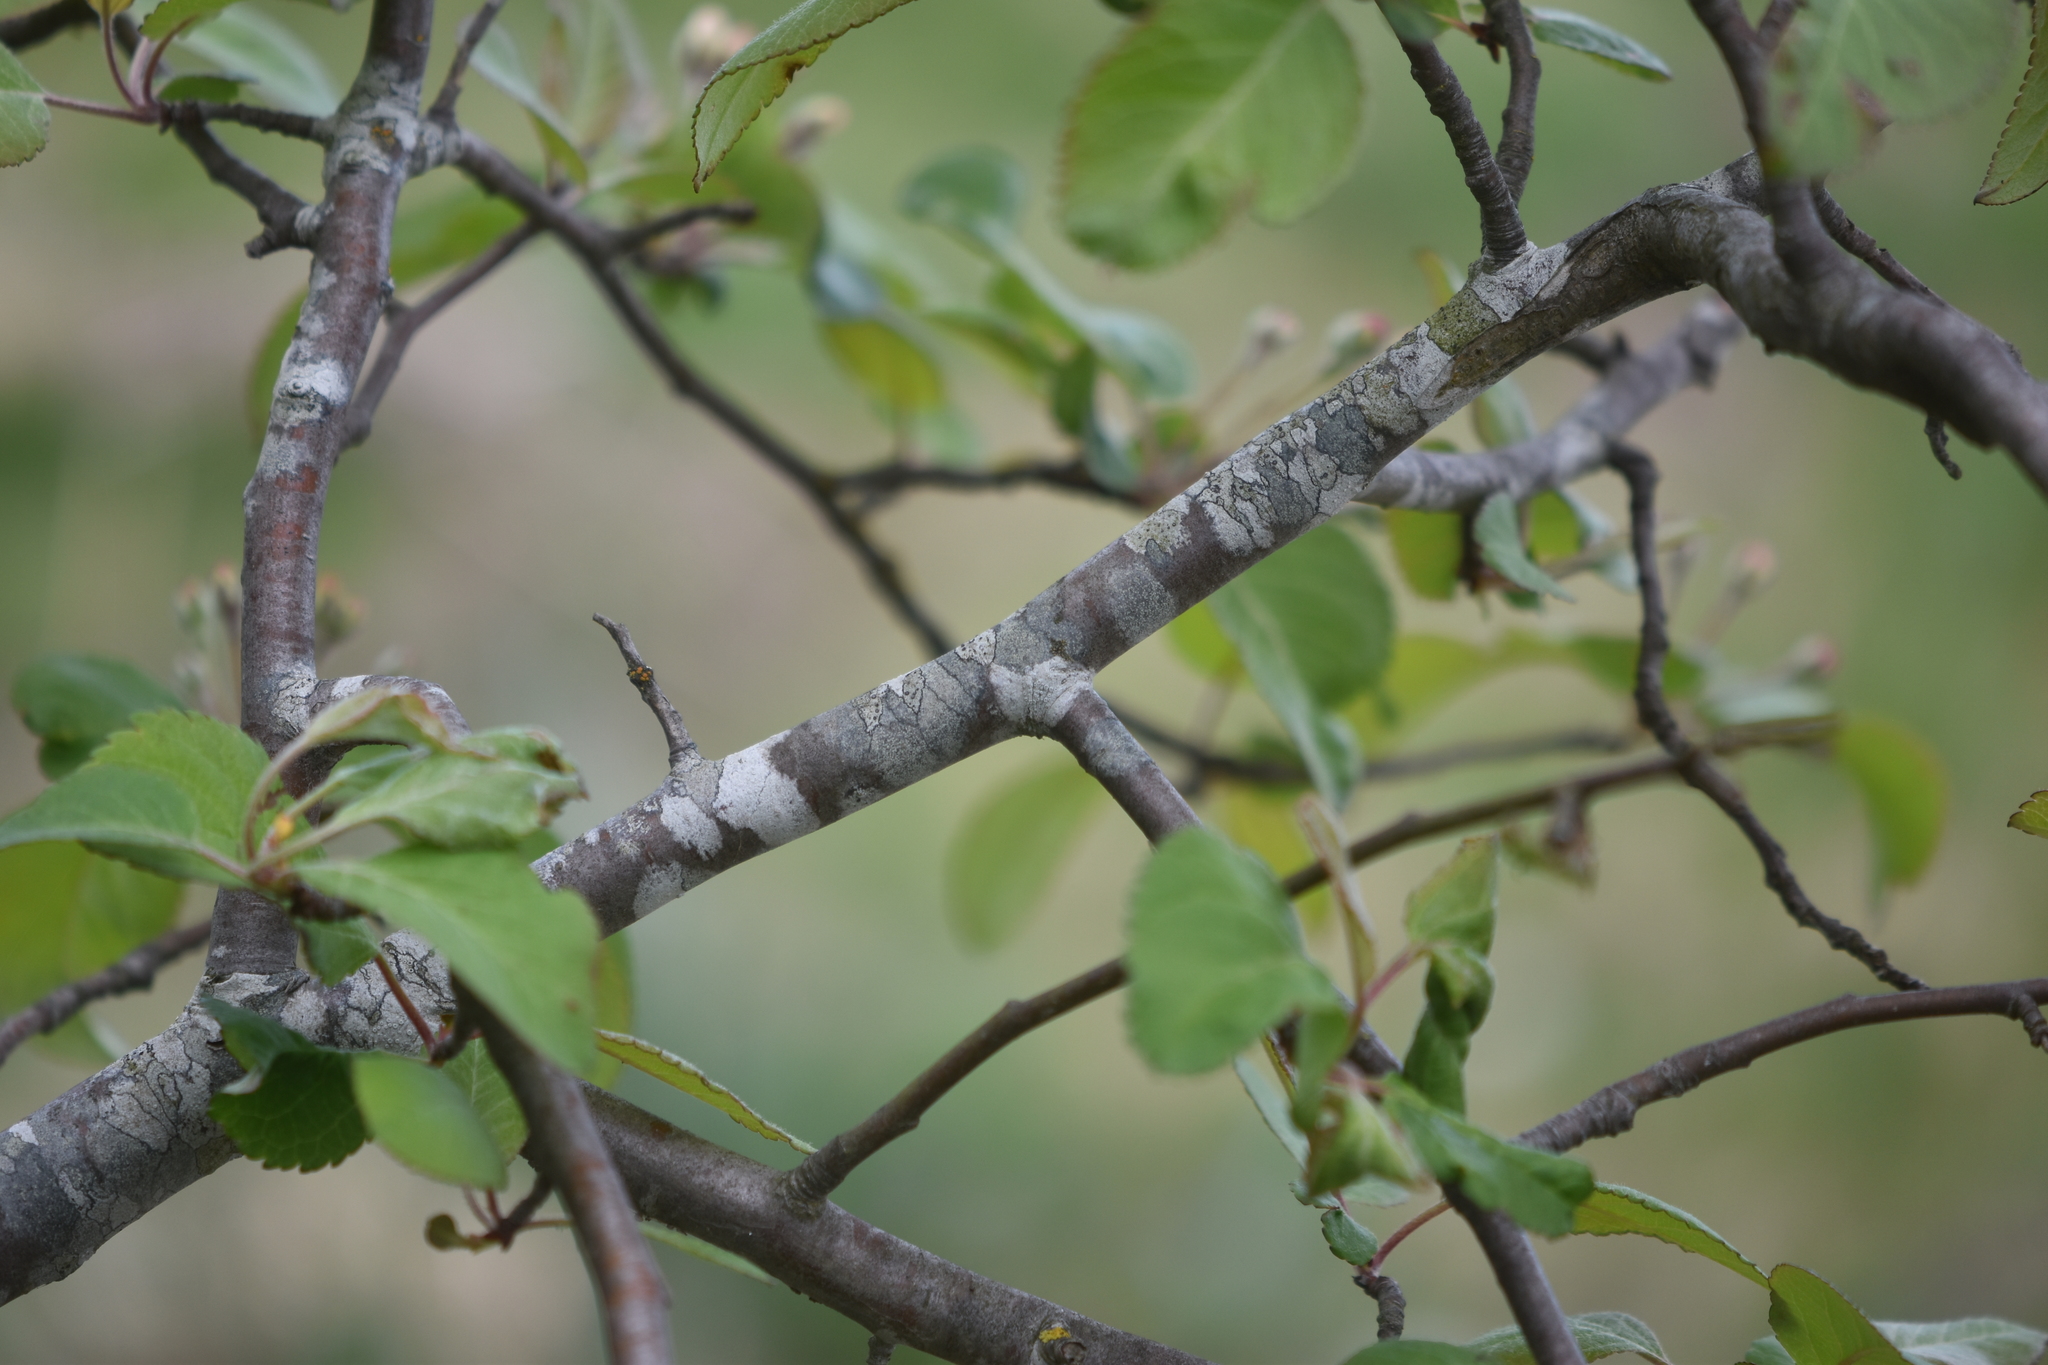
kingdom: Plantae
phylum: Tracheophyta
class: Magnoliopsida
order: Rosales
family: Rosaceae
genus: Malus
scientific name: Malus fusca
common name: Oregon crab apple
